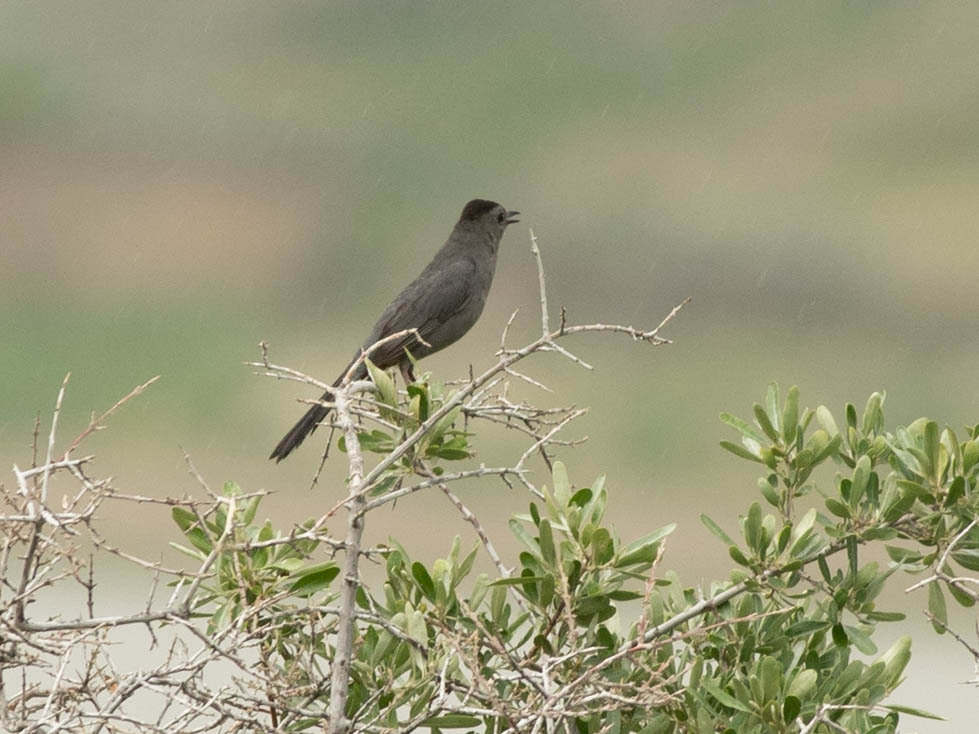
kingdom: Animalia
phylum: Chordata
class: Aves
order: Passeriformes
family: Mimidae
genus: Dumetella
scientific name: Dumetella carolinensis
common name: Gray catbird
